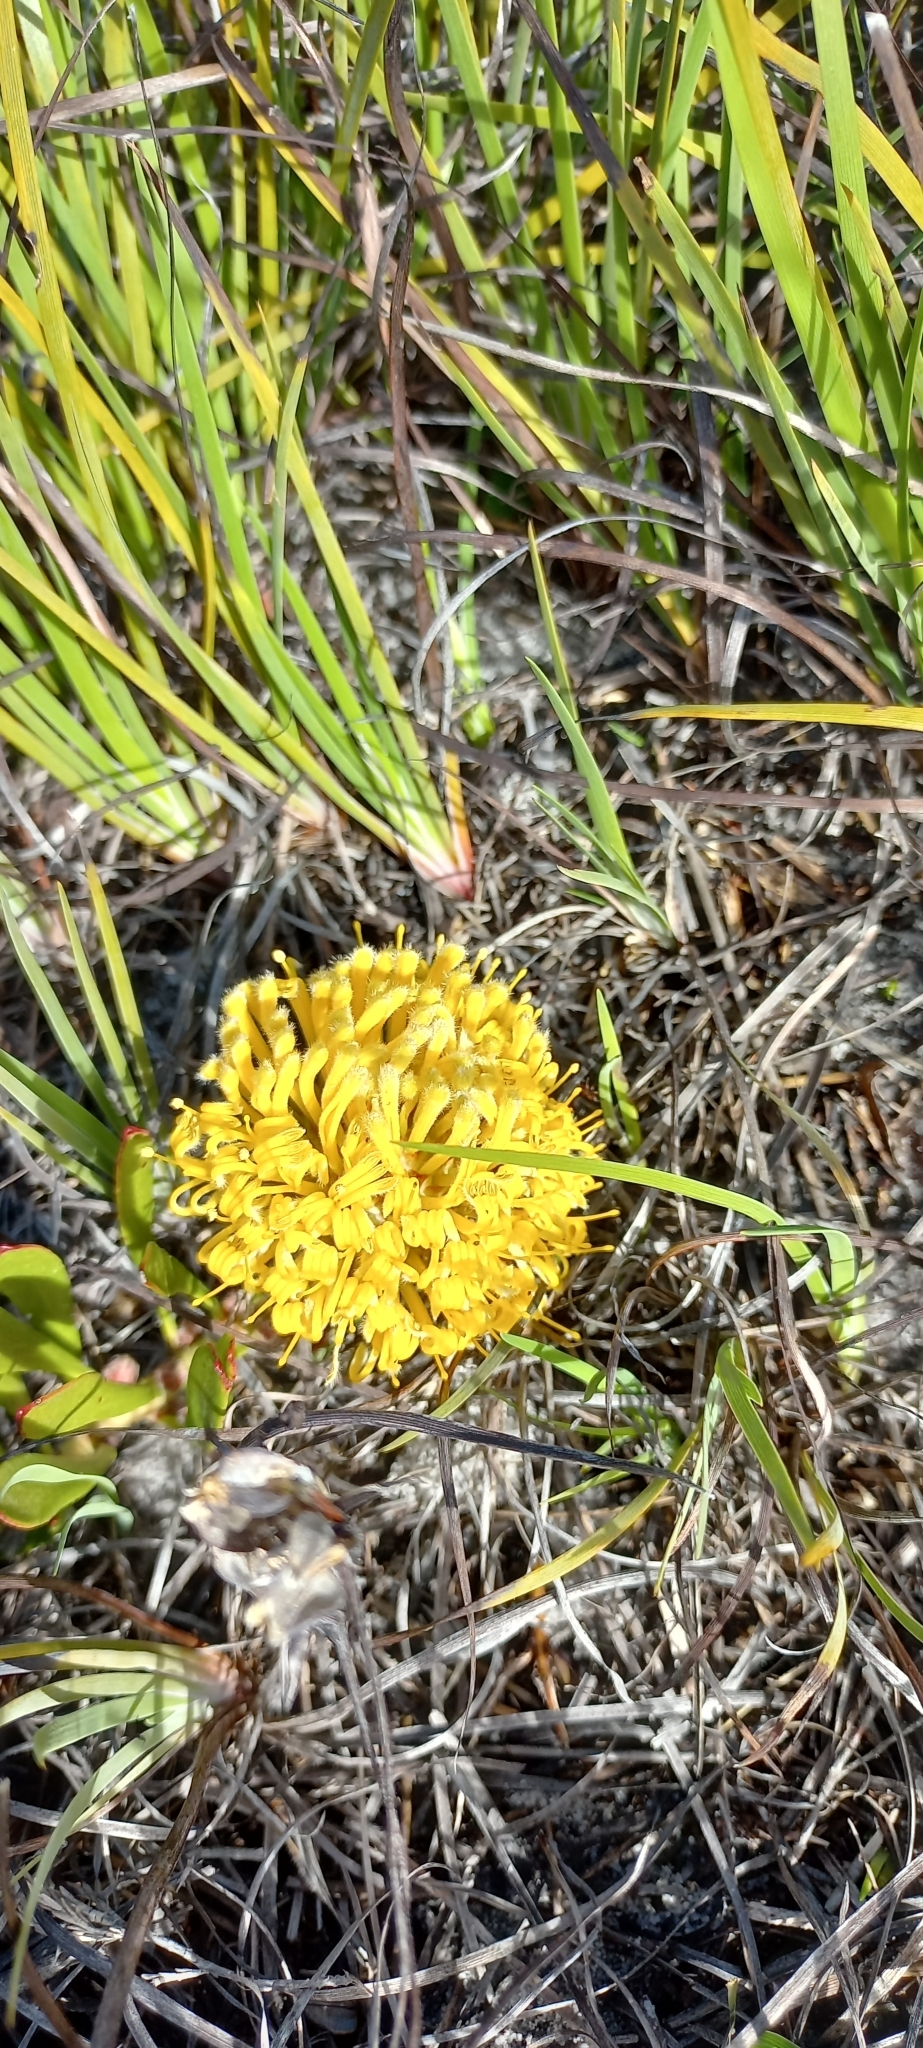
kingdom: Plantae
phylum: Tracheophyta
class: Magnoliopsida
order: Proteales
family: Proteaceae
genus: Leucospermum
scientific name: Leucospermum hypophyllocarpodendron
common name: Snakestem pincushion
